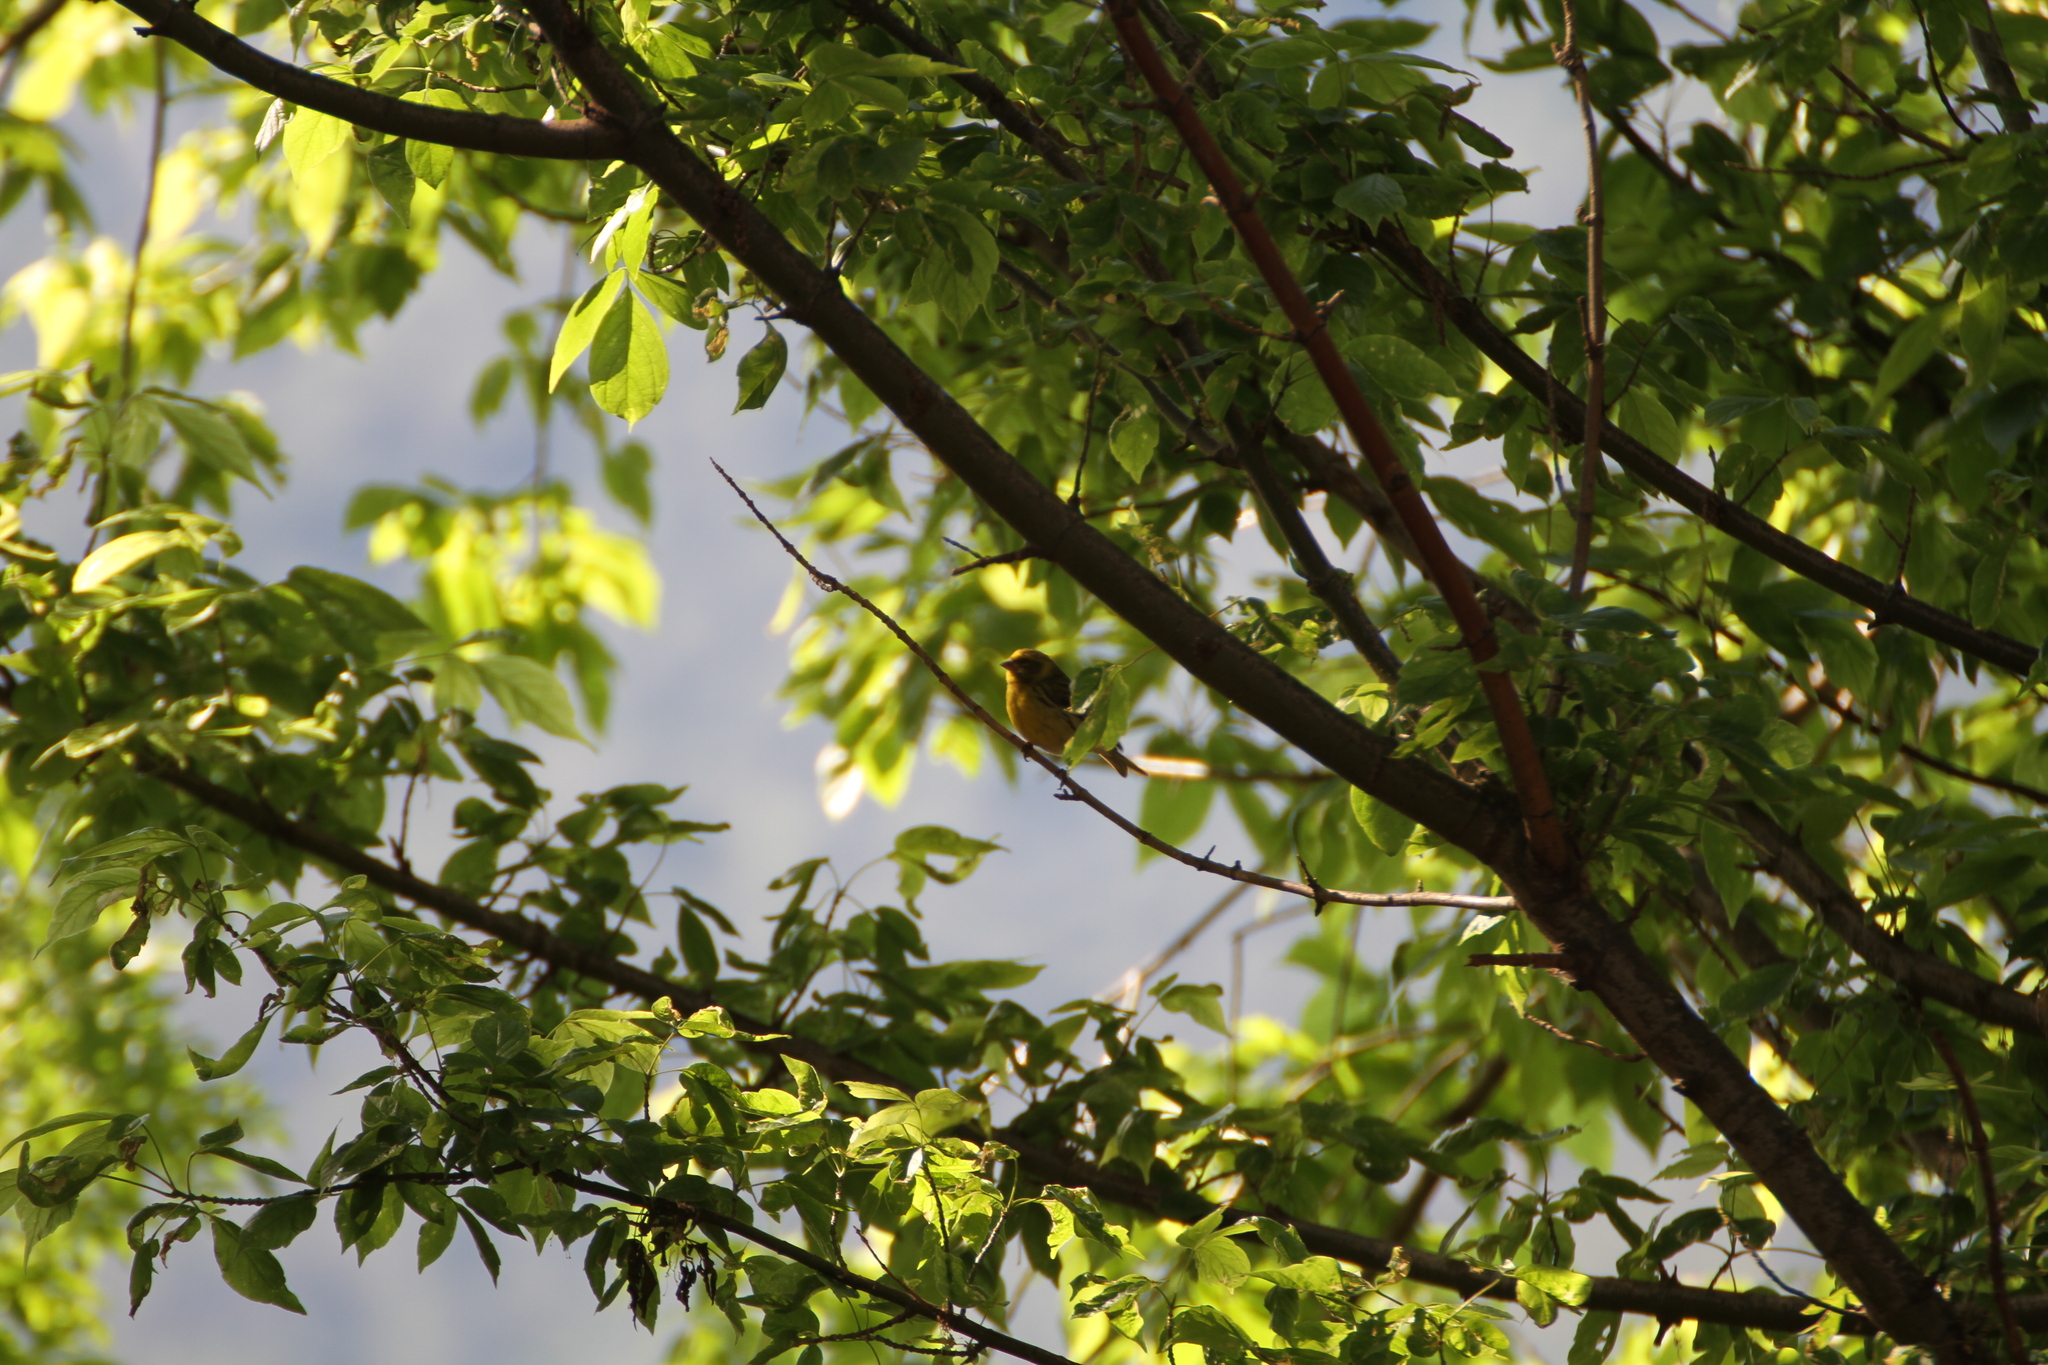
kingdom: Animalia
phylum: Chordata
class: Aves
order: Passeriformes
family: Fringillidae
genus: Serinus
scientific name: Serinus serinus
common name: European serin
